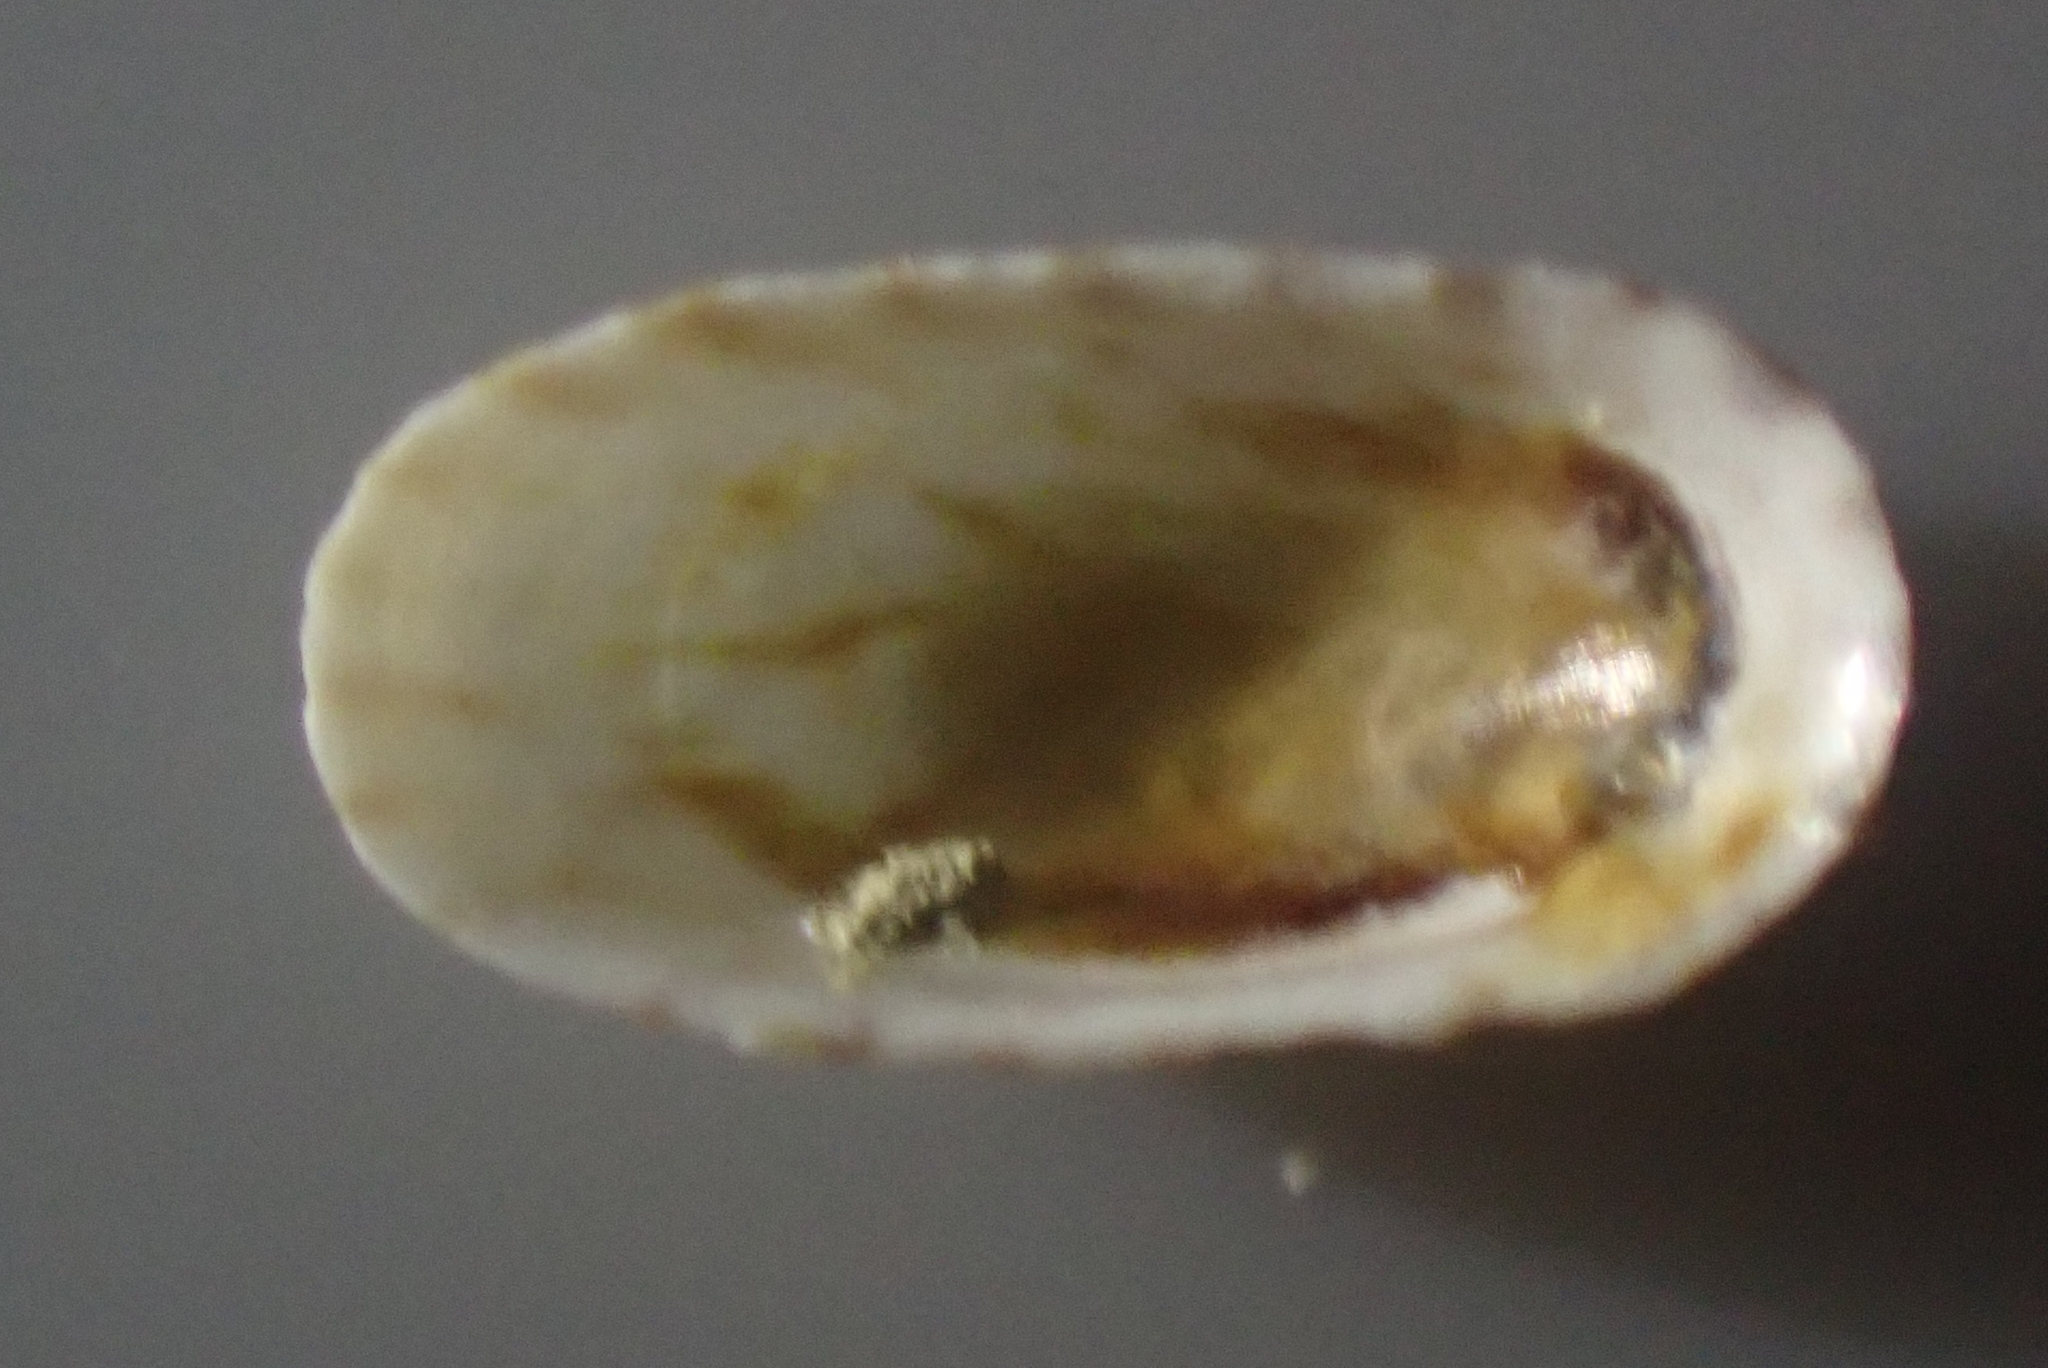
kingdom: Animalia
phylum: Mollusca
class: Gastropoda
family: Lottiidae
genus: Notoacmea
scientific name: Notoacmea scapha
